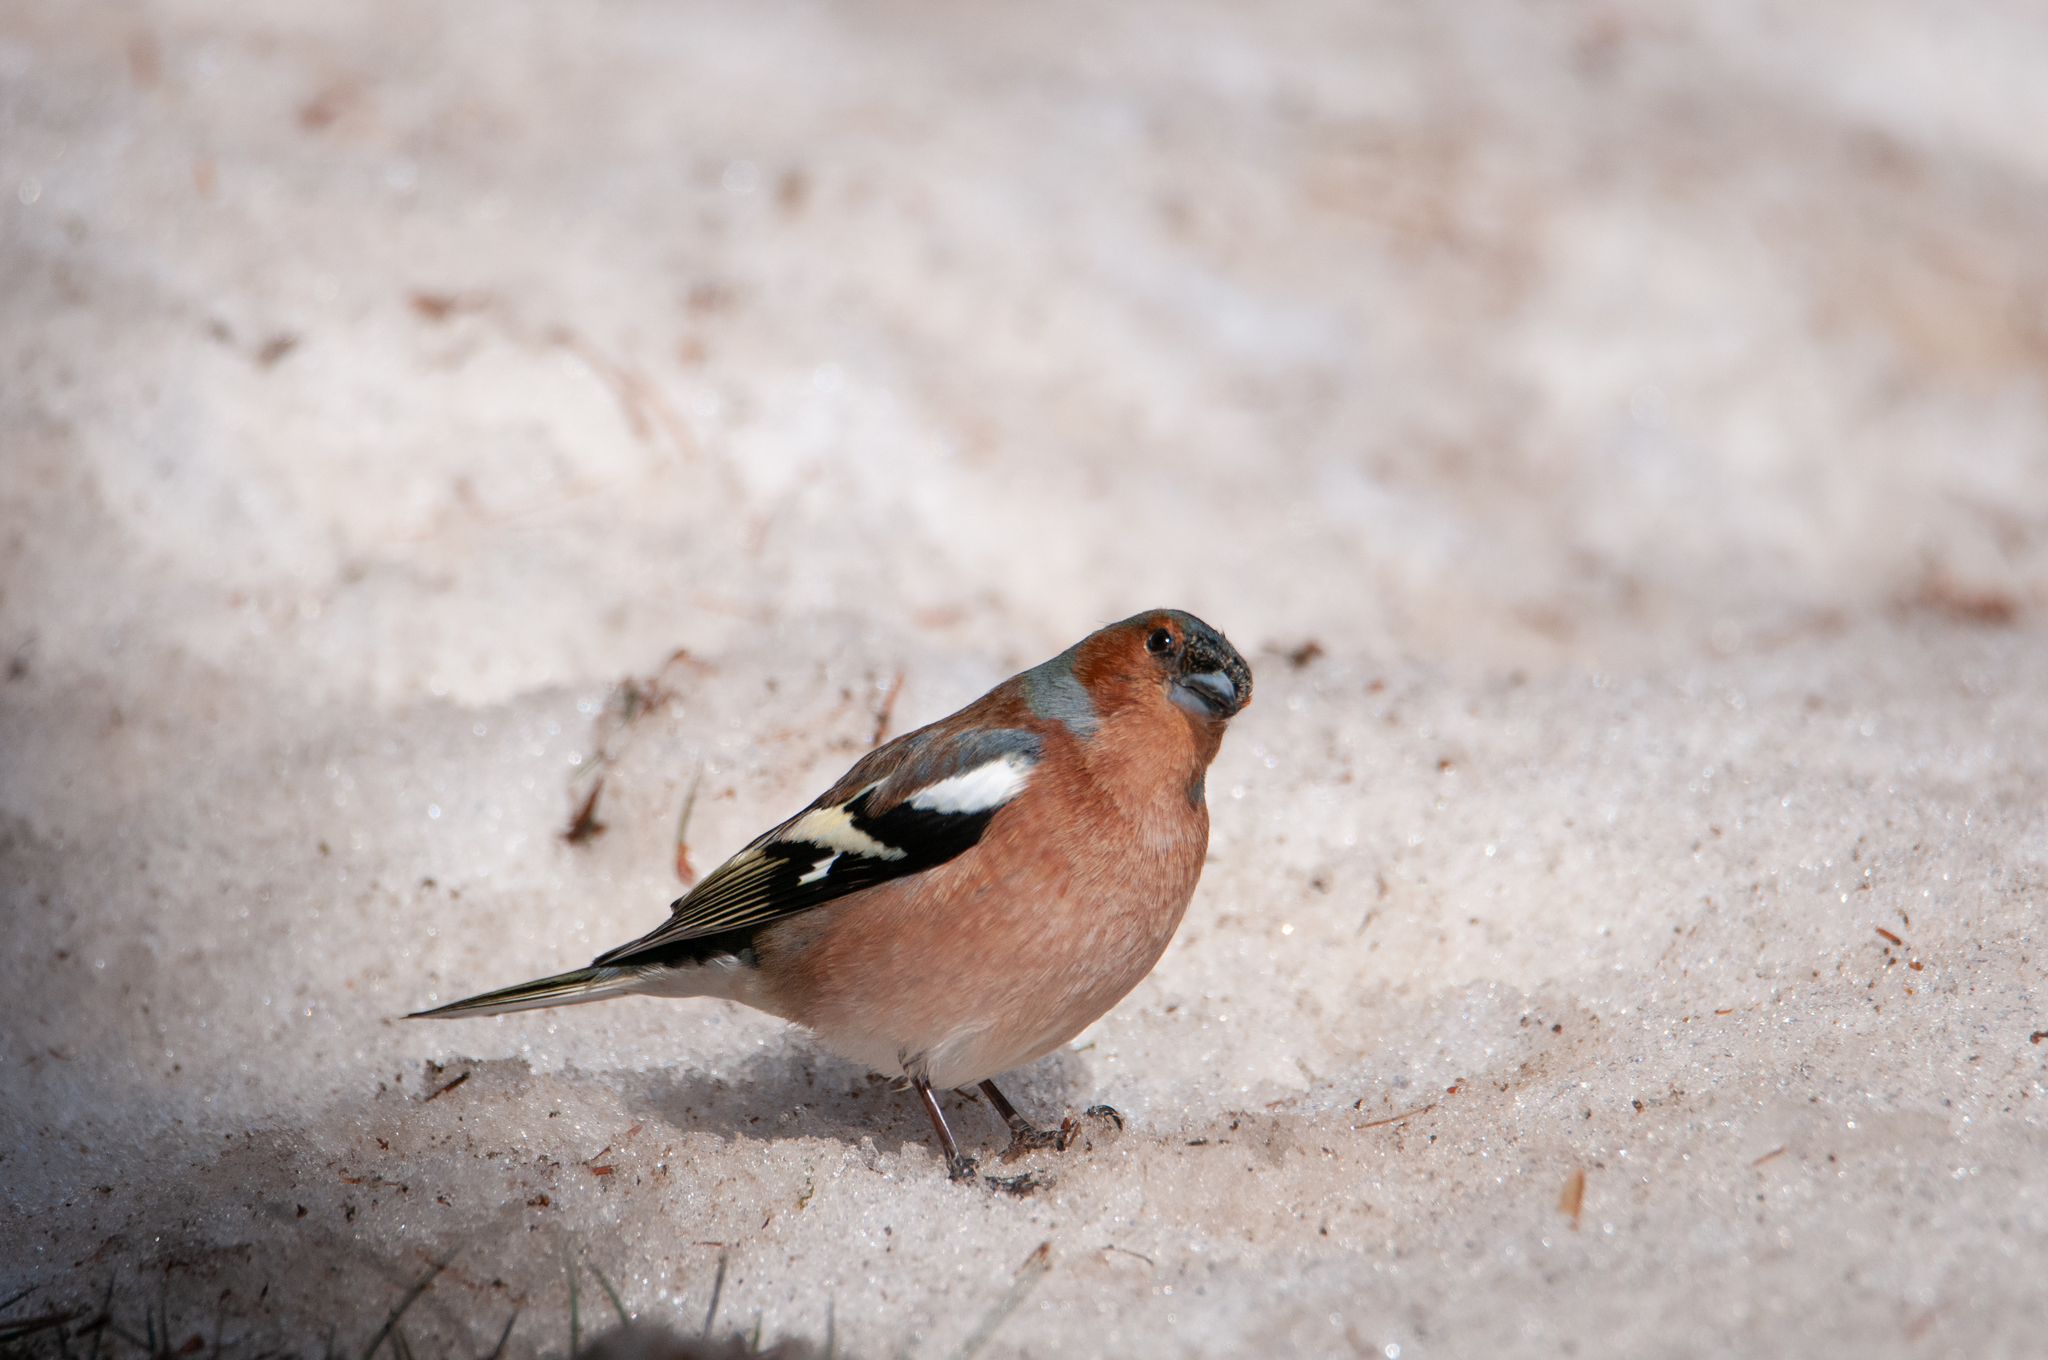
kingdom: Animalia
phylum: Chordata
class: Aves
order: Passeriformes
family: Fringillidae
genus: Fringilla
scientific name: Fringilla coelebs
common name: Common chaffinch
